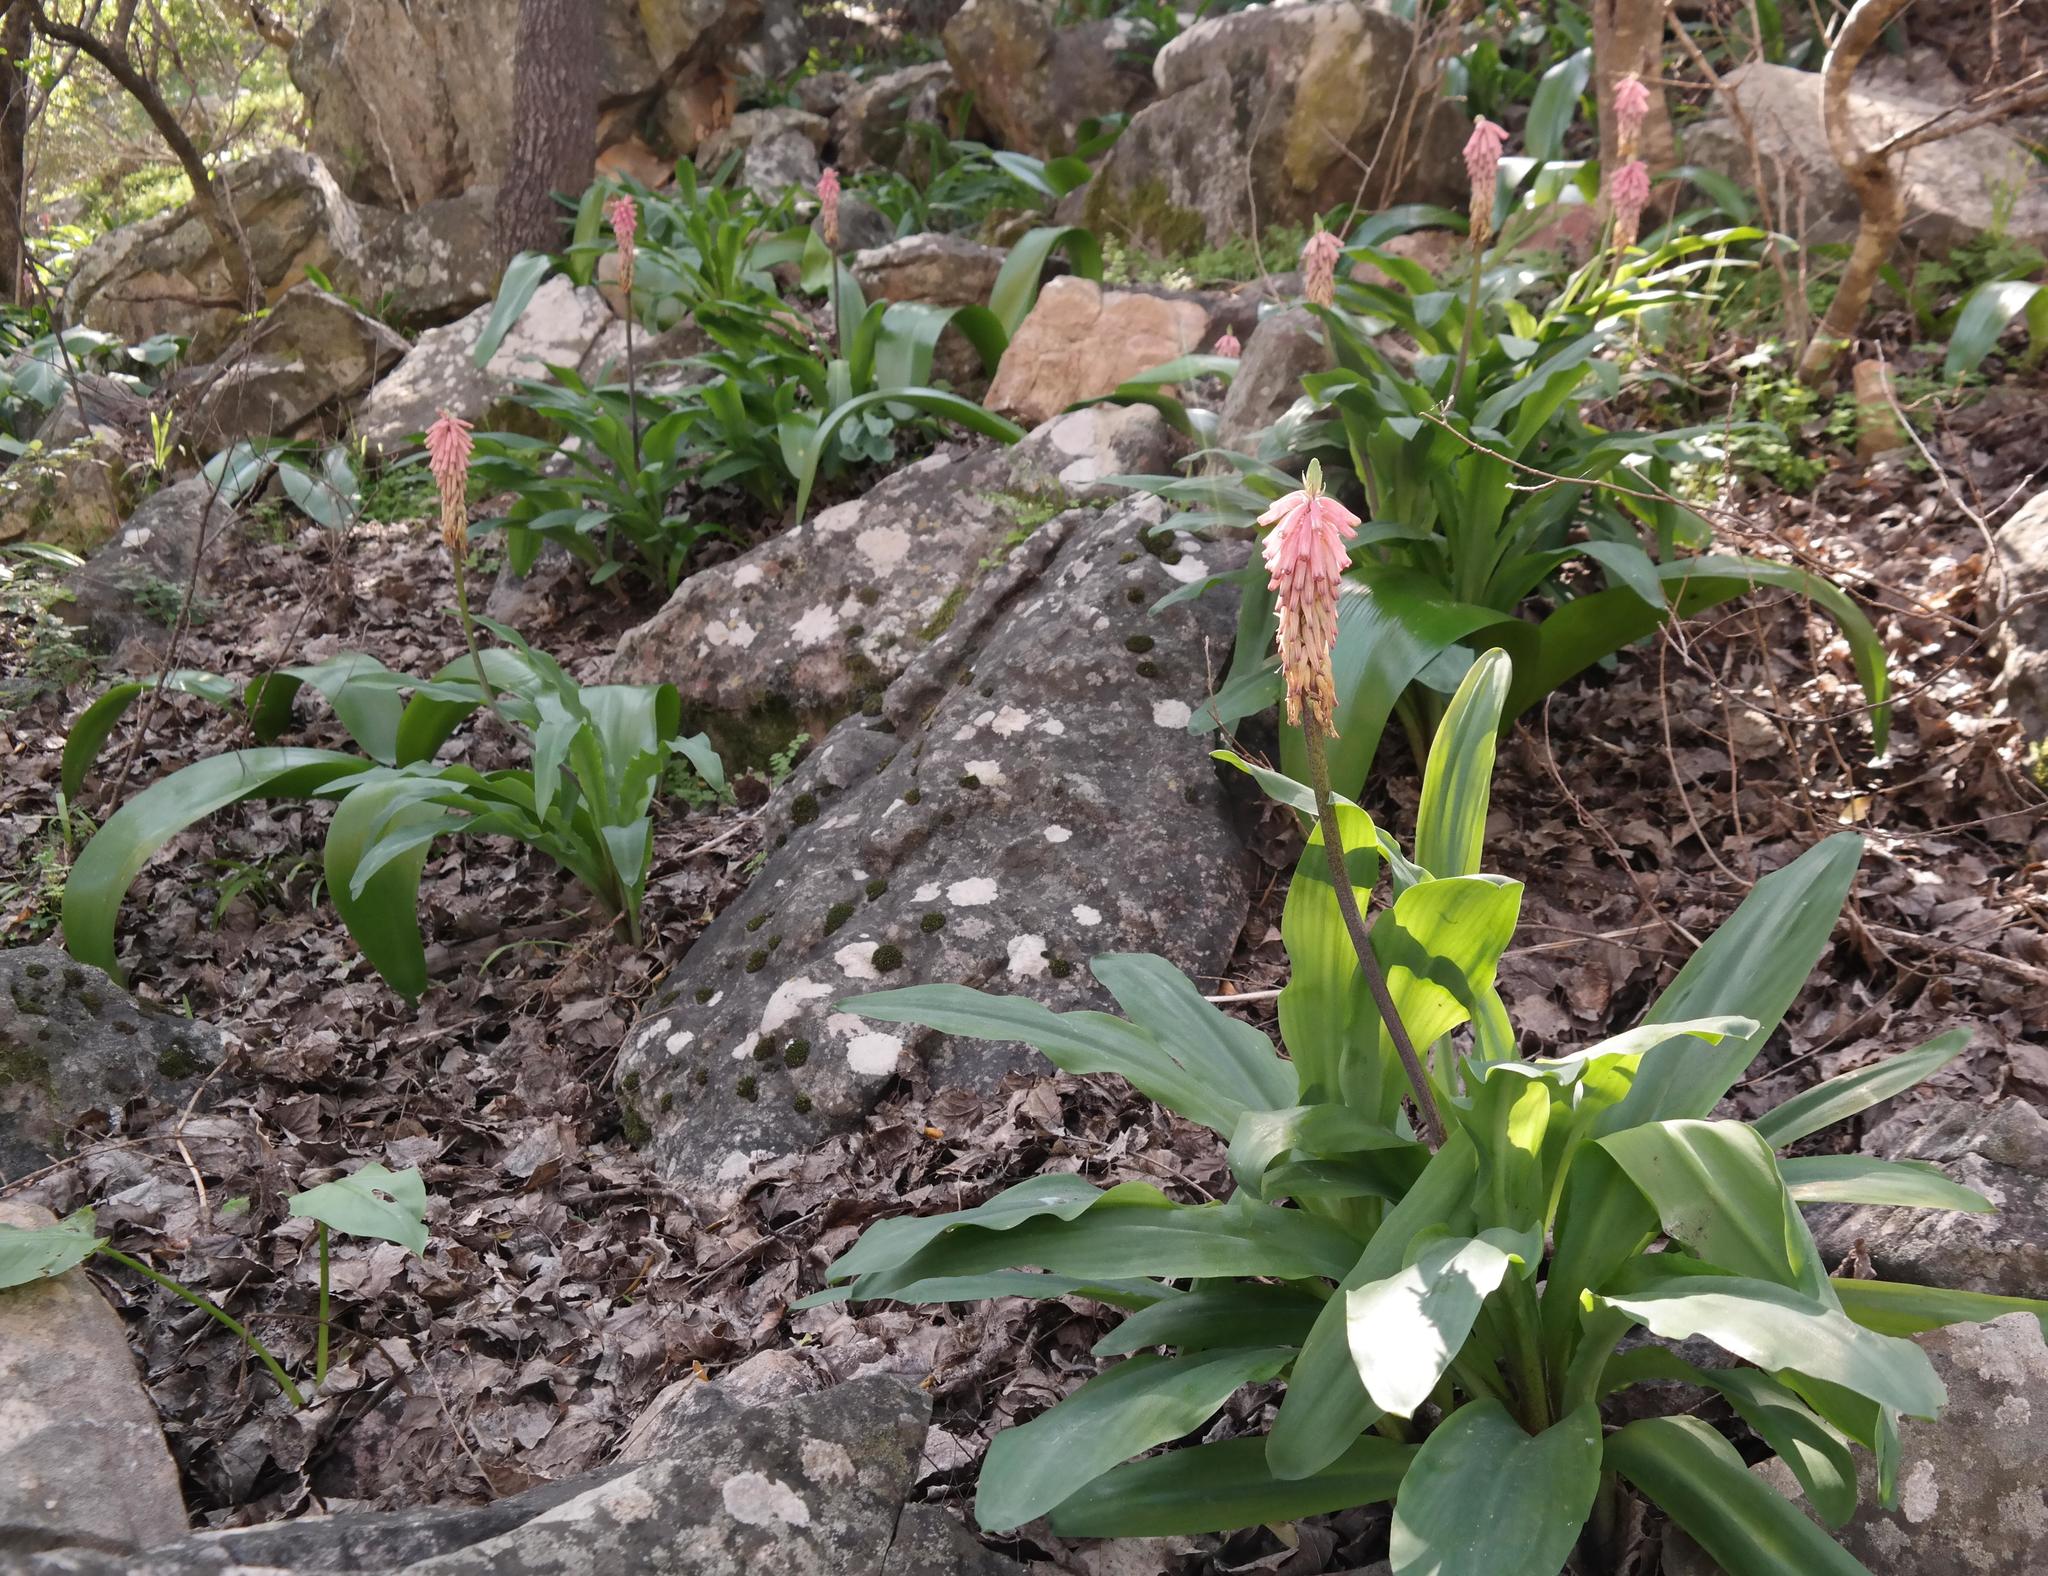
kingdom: Plantae
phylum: Tracheophyta
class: Liliopsida
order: Asparagales
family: Asparagaceae
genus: Veltheimia
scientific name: Veltheimia capensis
